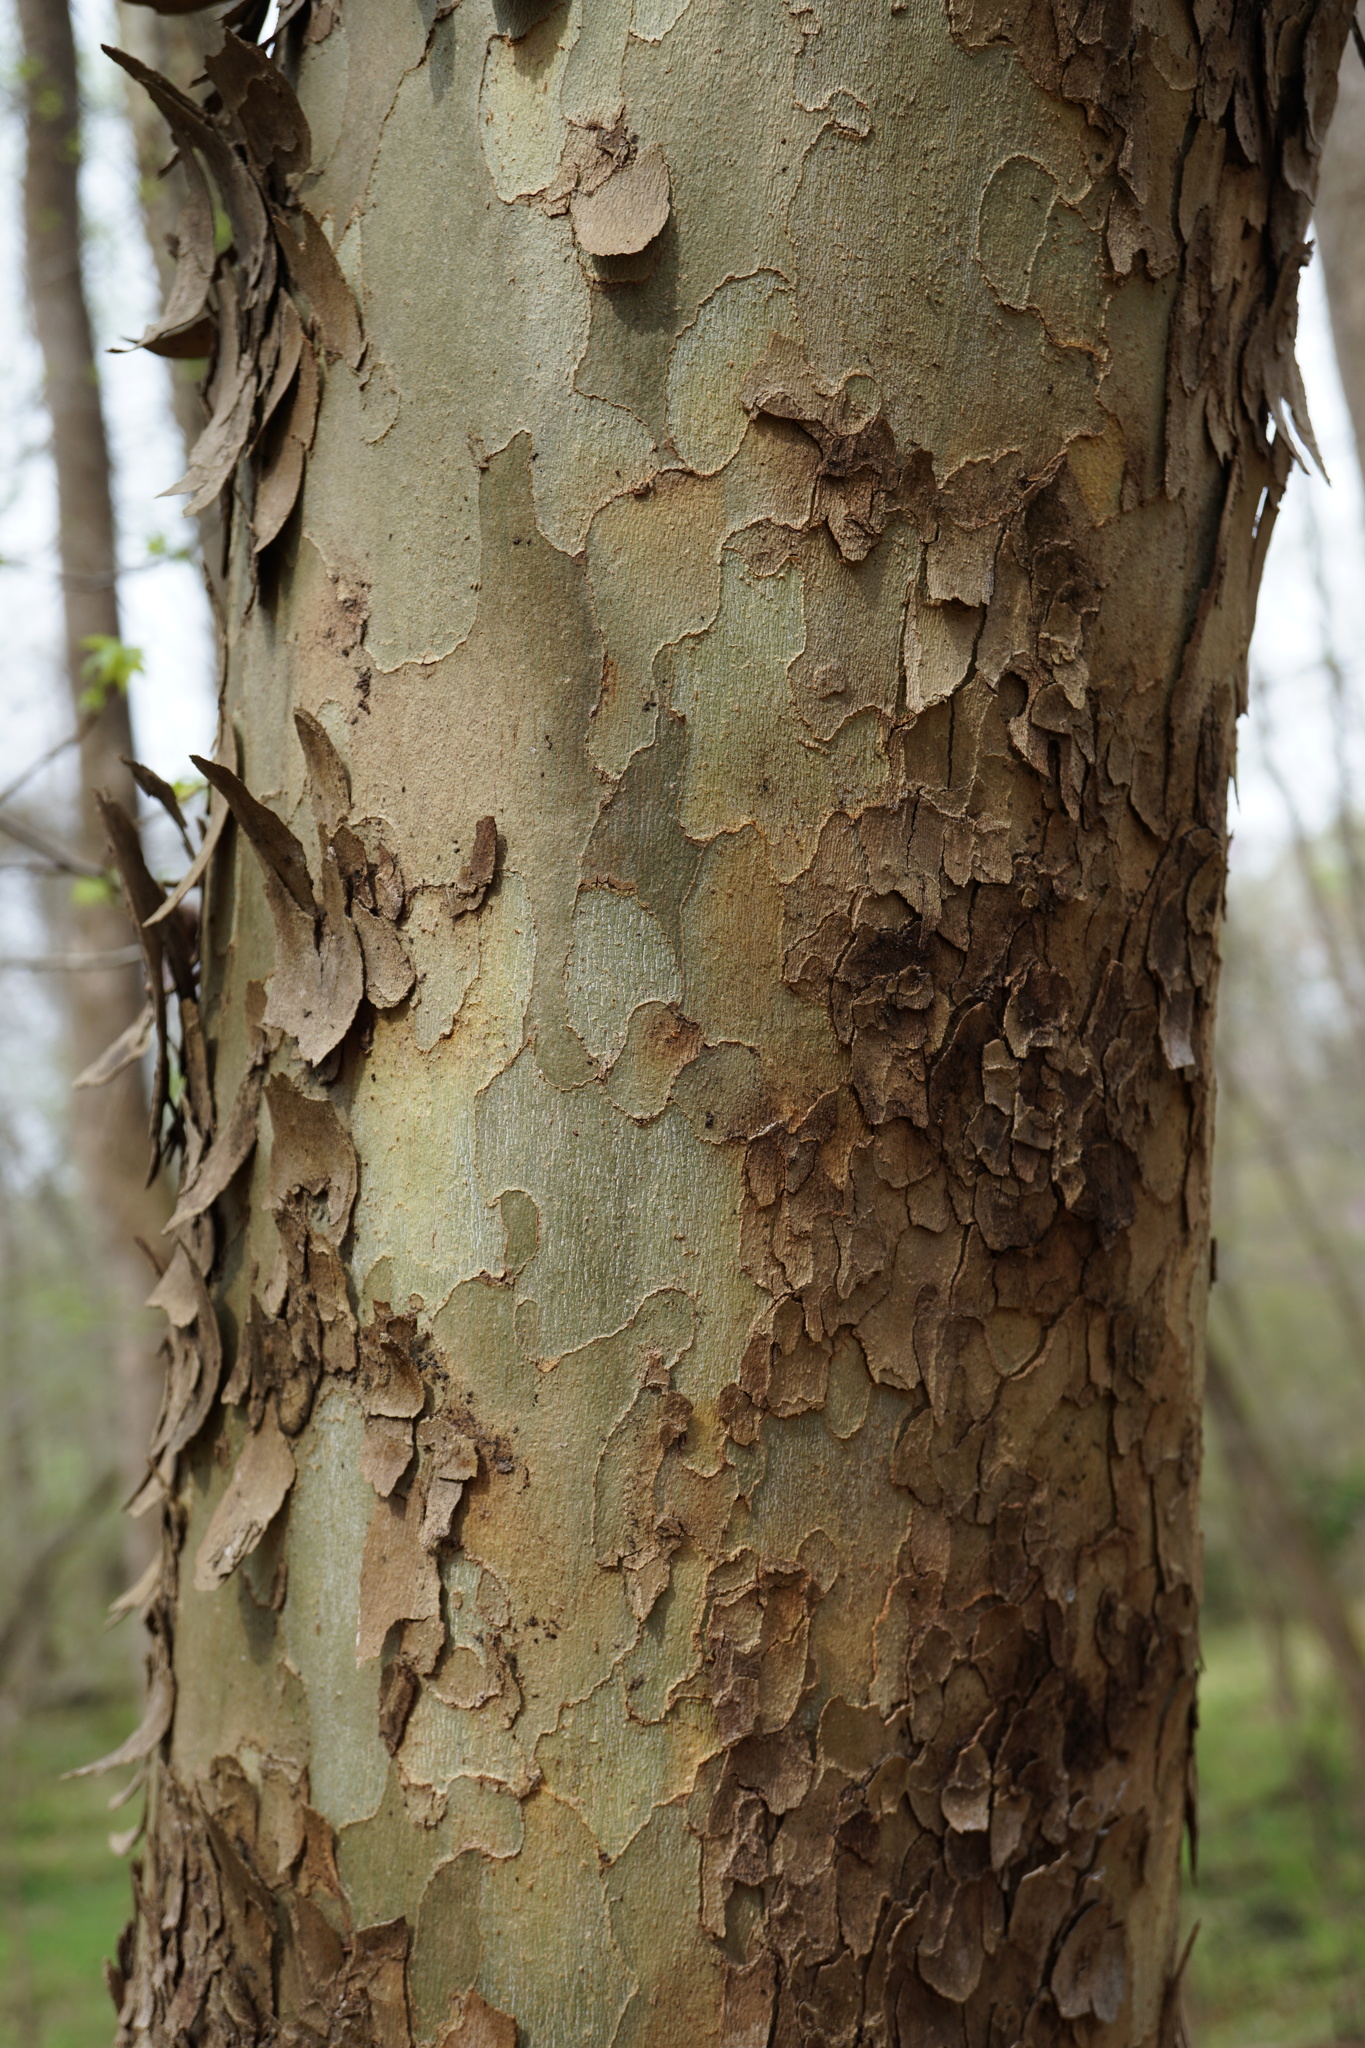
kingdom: Plantae
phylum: Tracheophyta
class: Magnoliopsida
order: Proteales
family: Platanaceae
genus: Platanus
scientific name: Platanus occidentalis
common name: American sycamore
